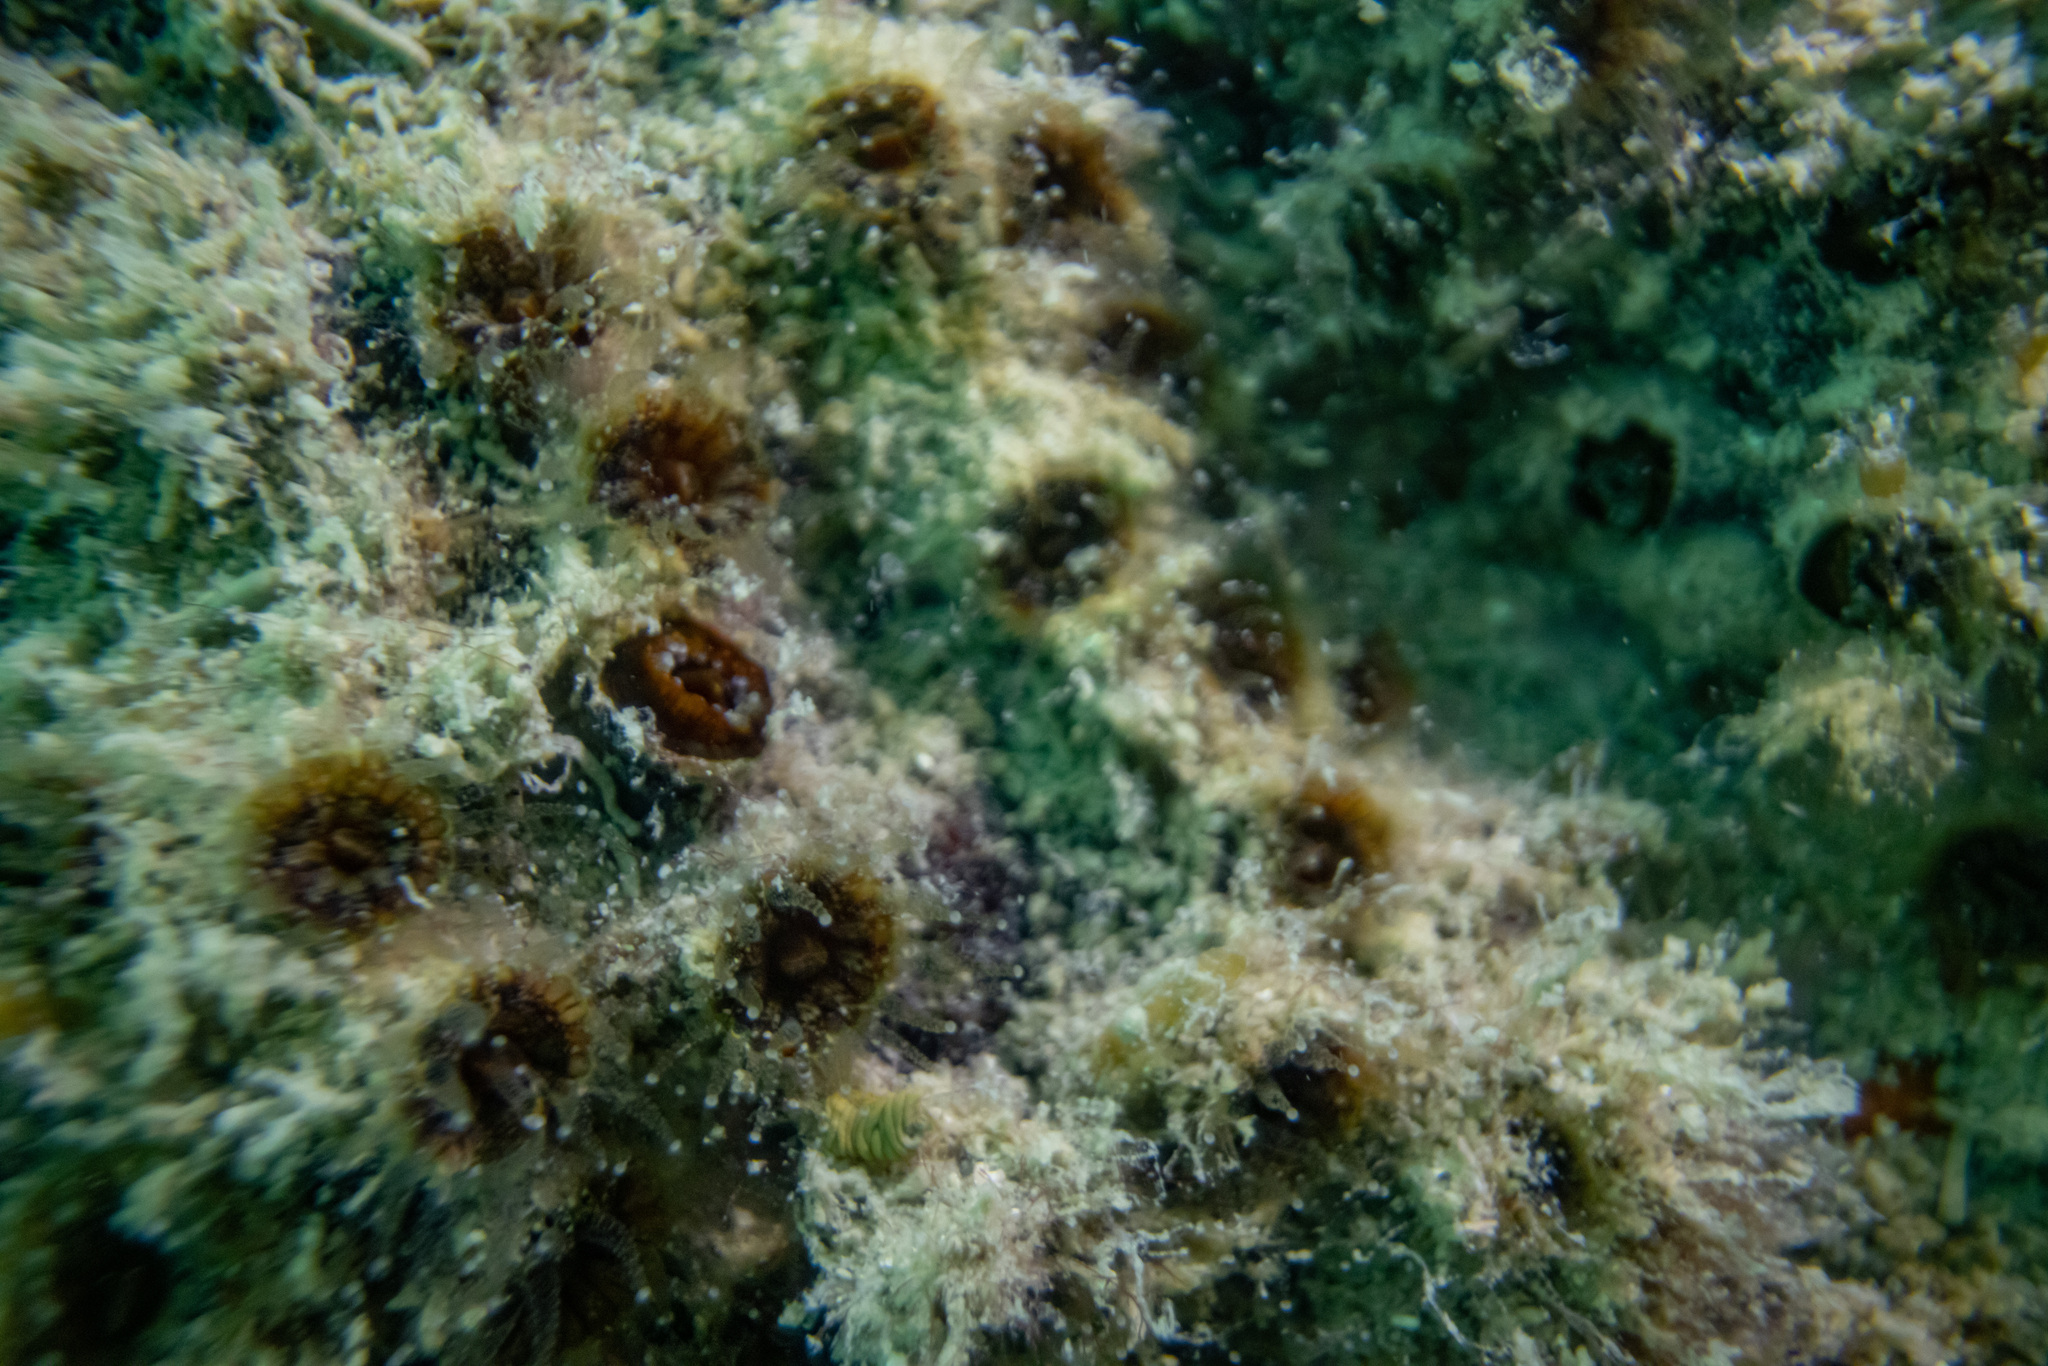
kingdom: Animalia
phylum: Cnidaria
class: Anthozoa
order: Scleractinia
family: Rhizangiidae
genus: Culicia
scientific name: Culicia rubeola
